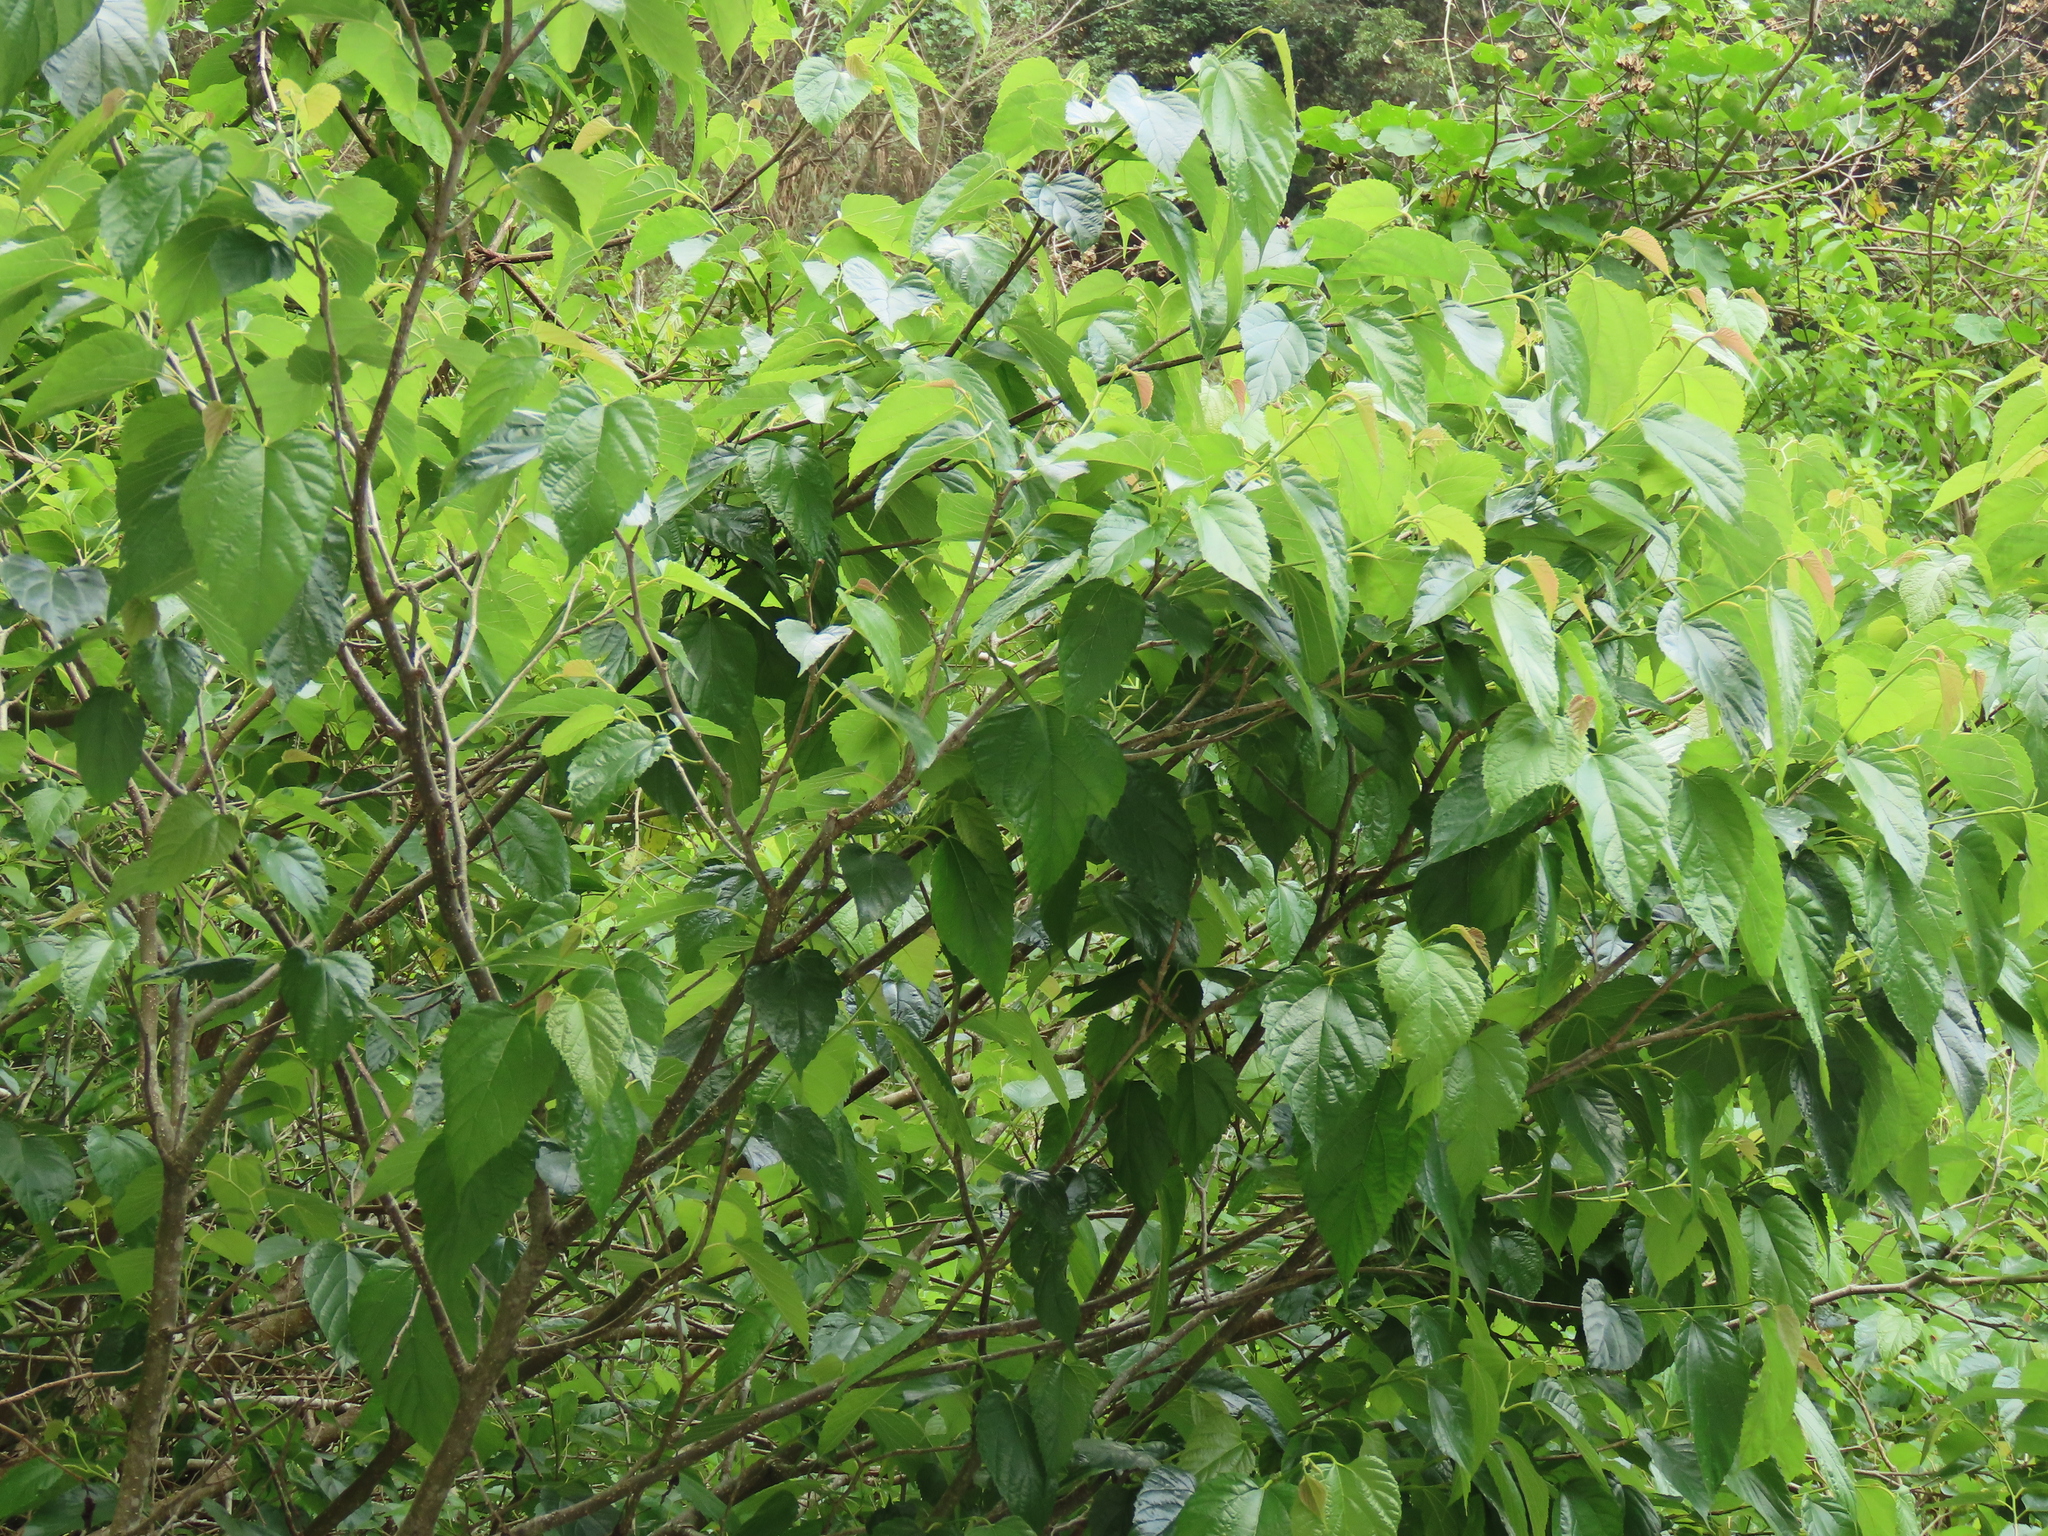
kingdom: Plantae
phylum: Tracheophyta
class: Magnoliopsida
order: Rosales
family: Moraceae
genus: Morus
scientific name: Morus indica
